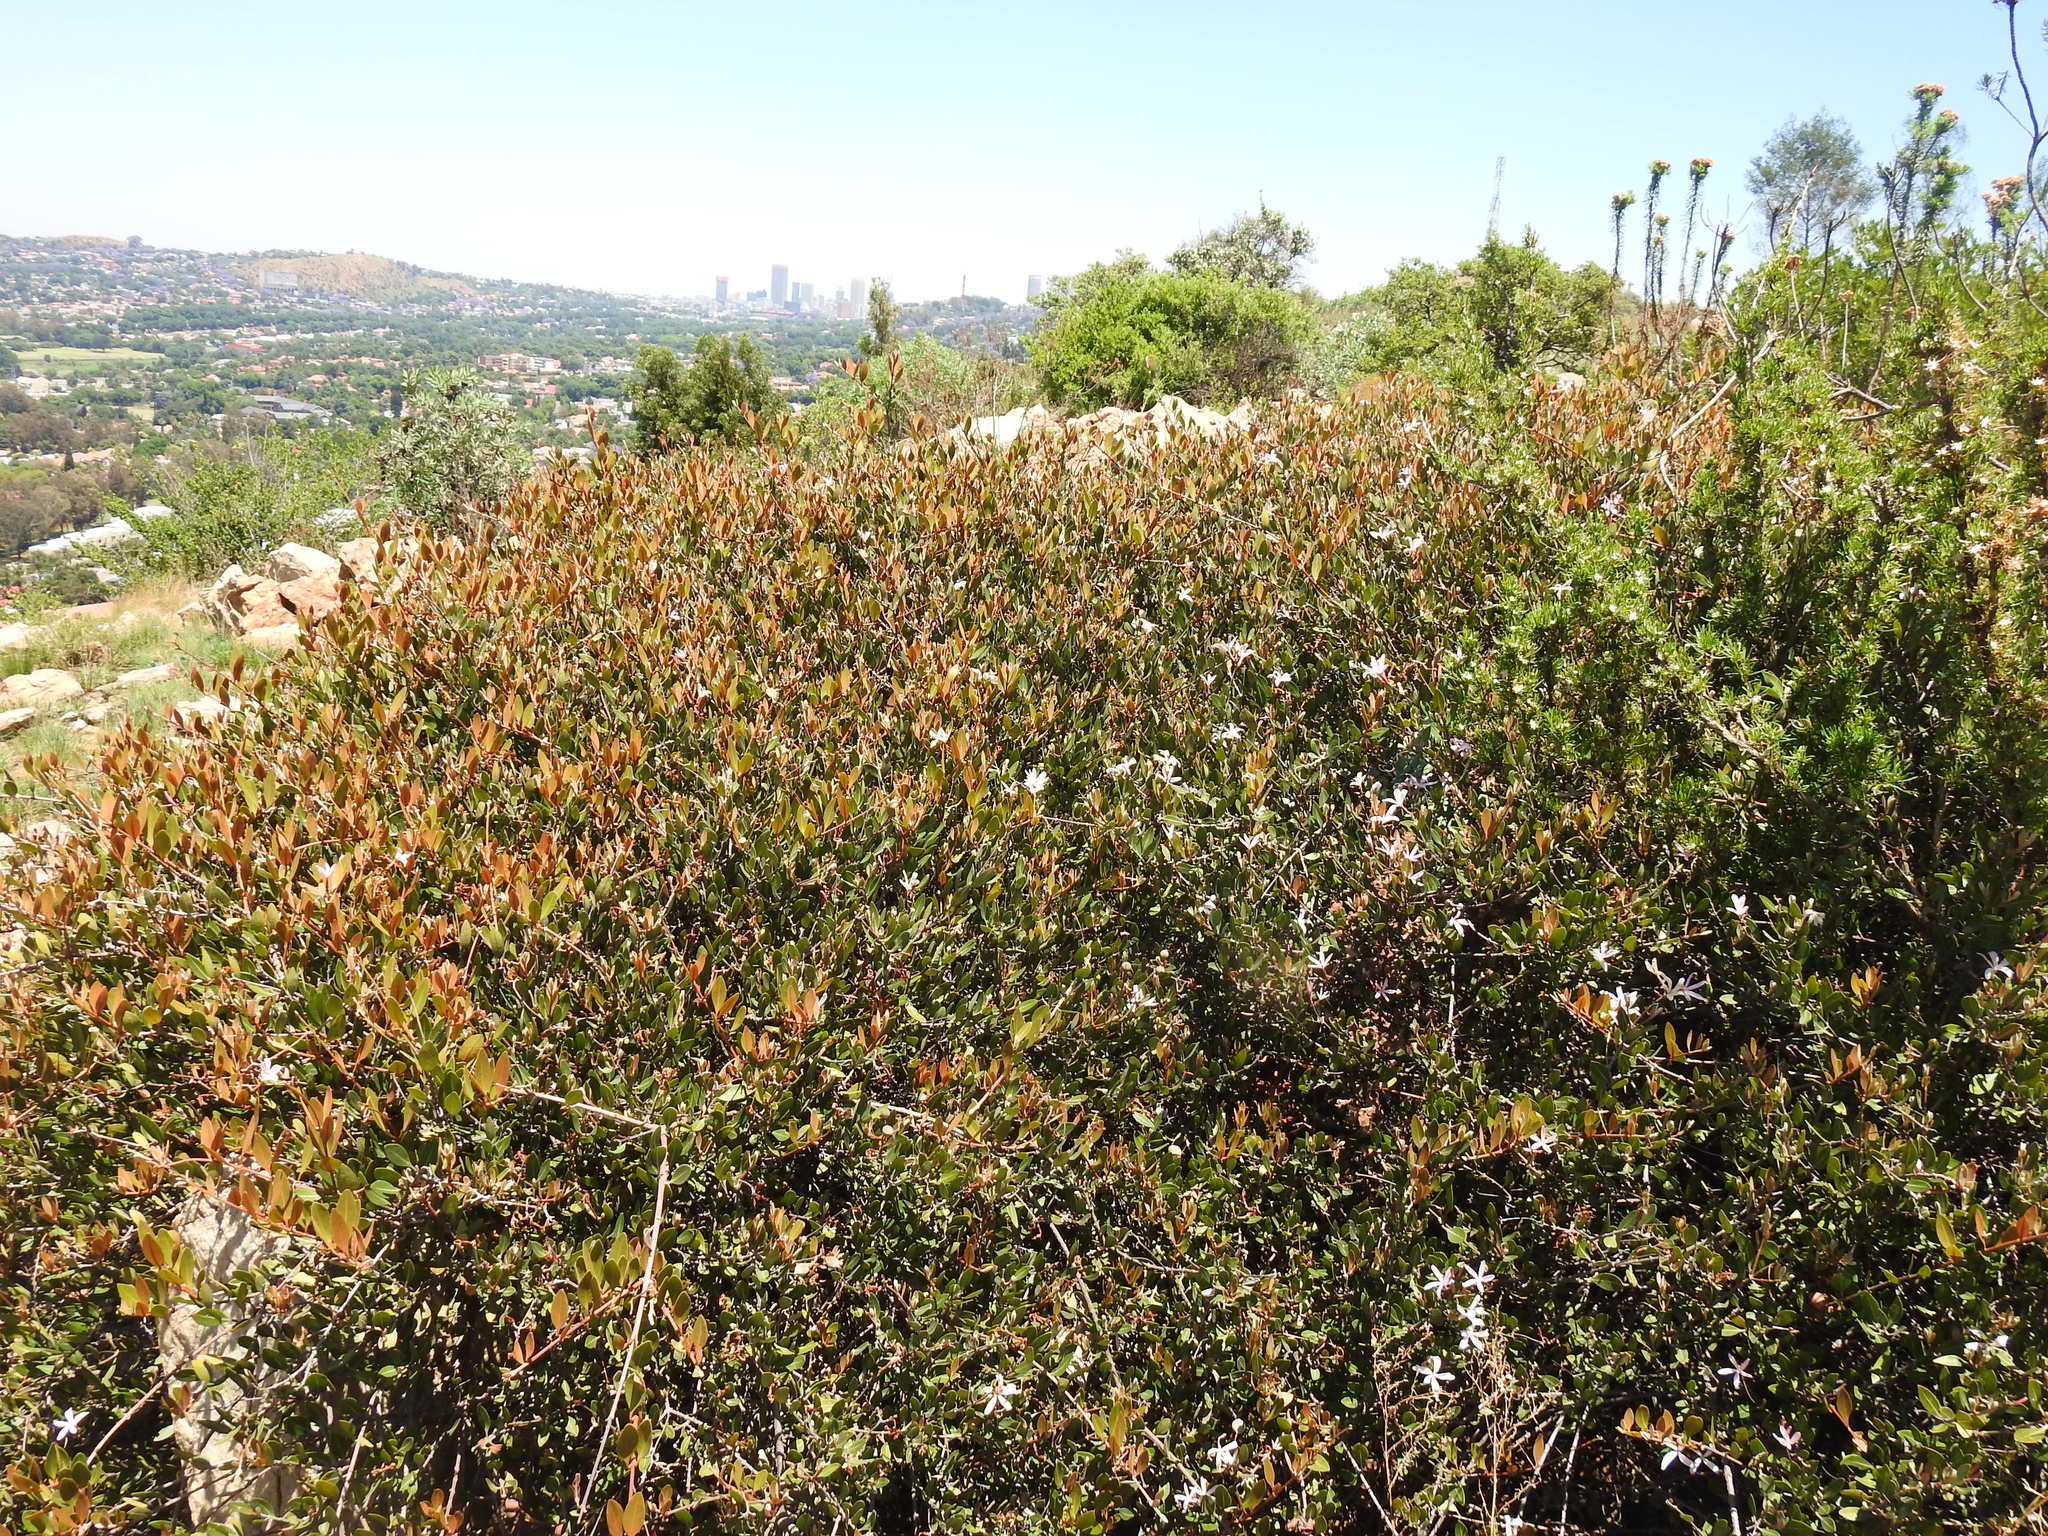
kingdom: Plantae
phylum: Tracheophyta
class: Magnoliopsida
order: Gentianales
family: Apocynaceae
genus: Ancylobothrys
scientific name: Ancylobothrys capensis
